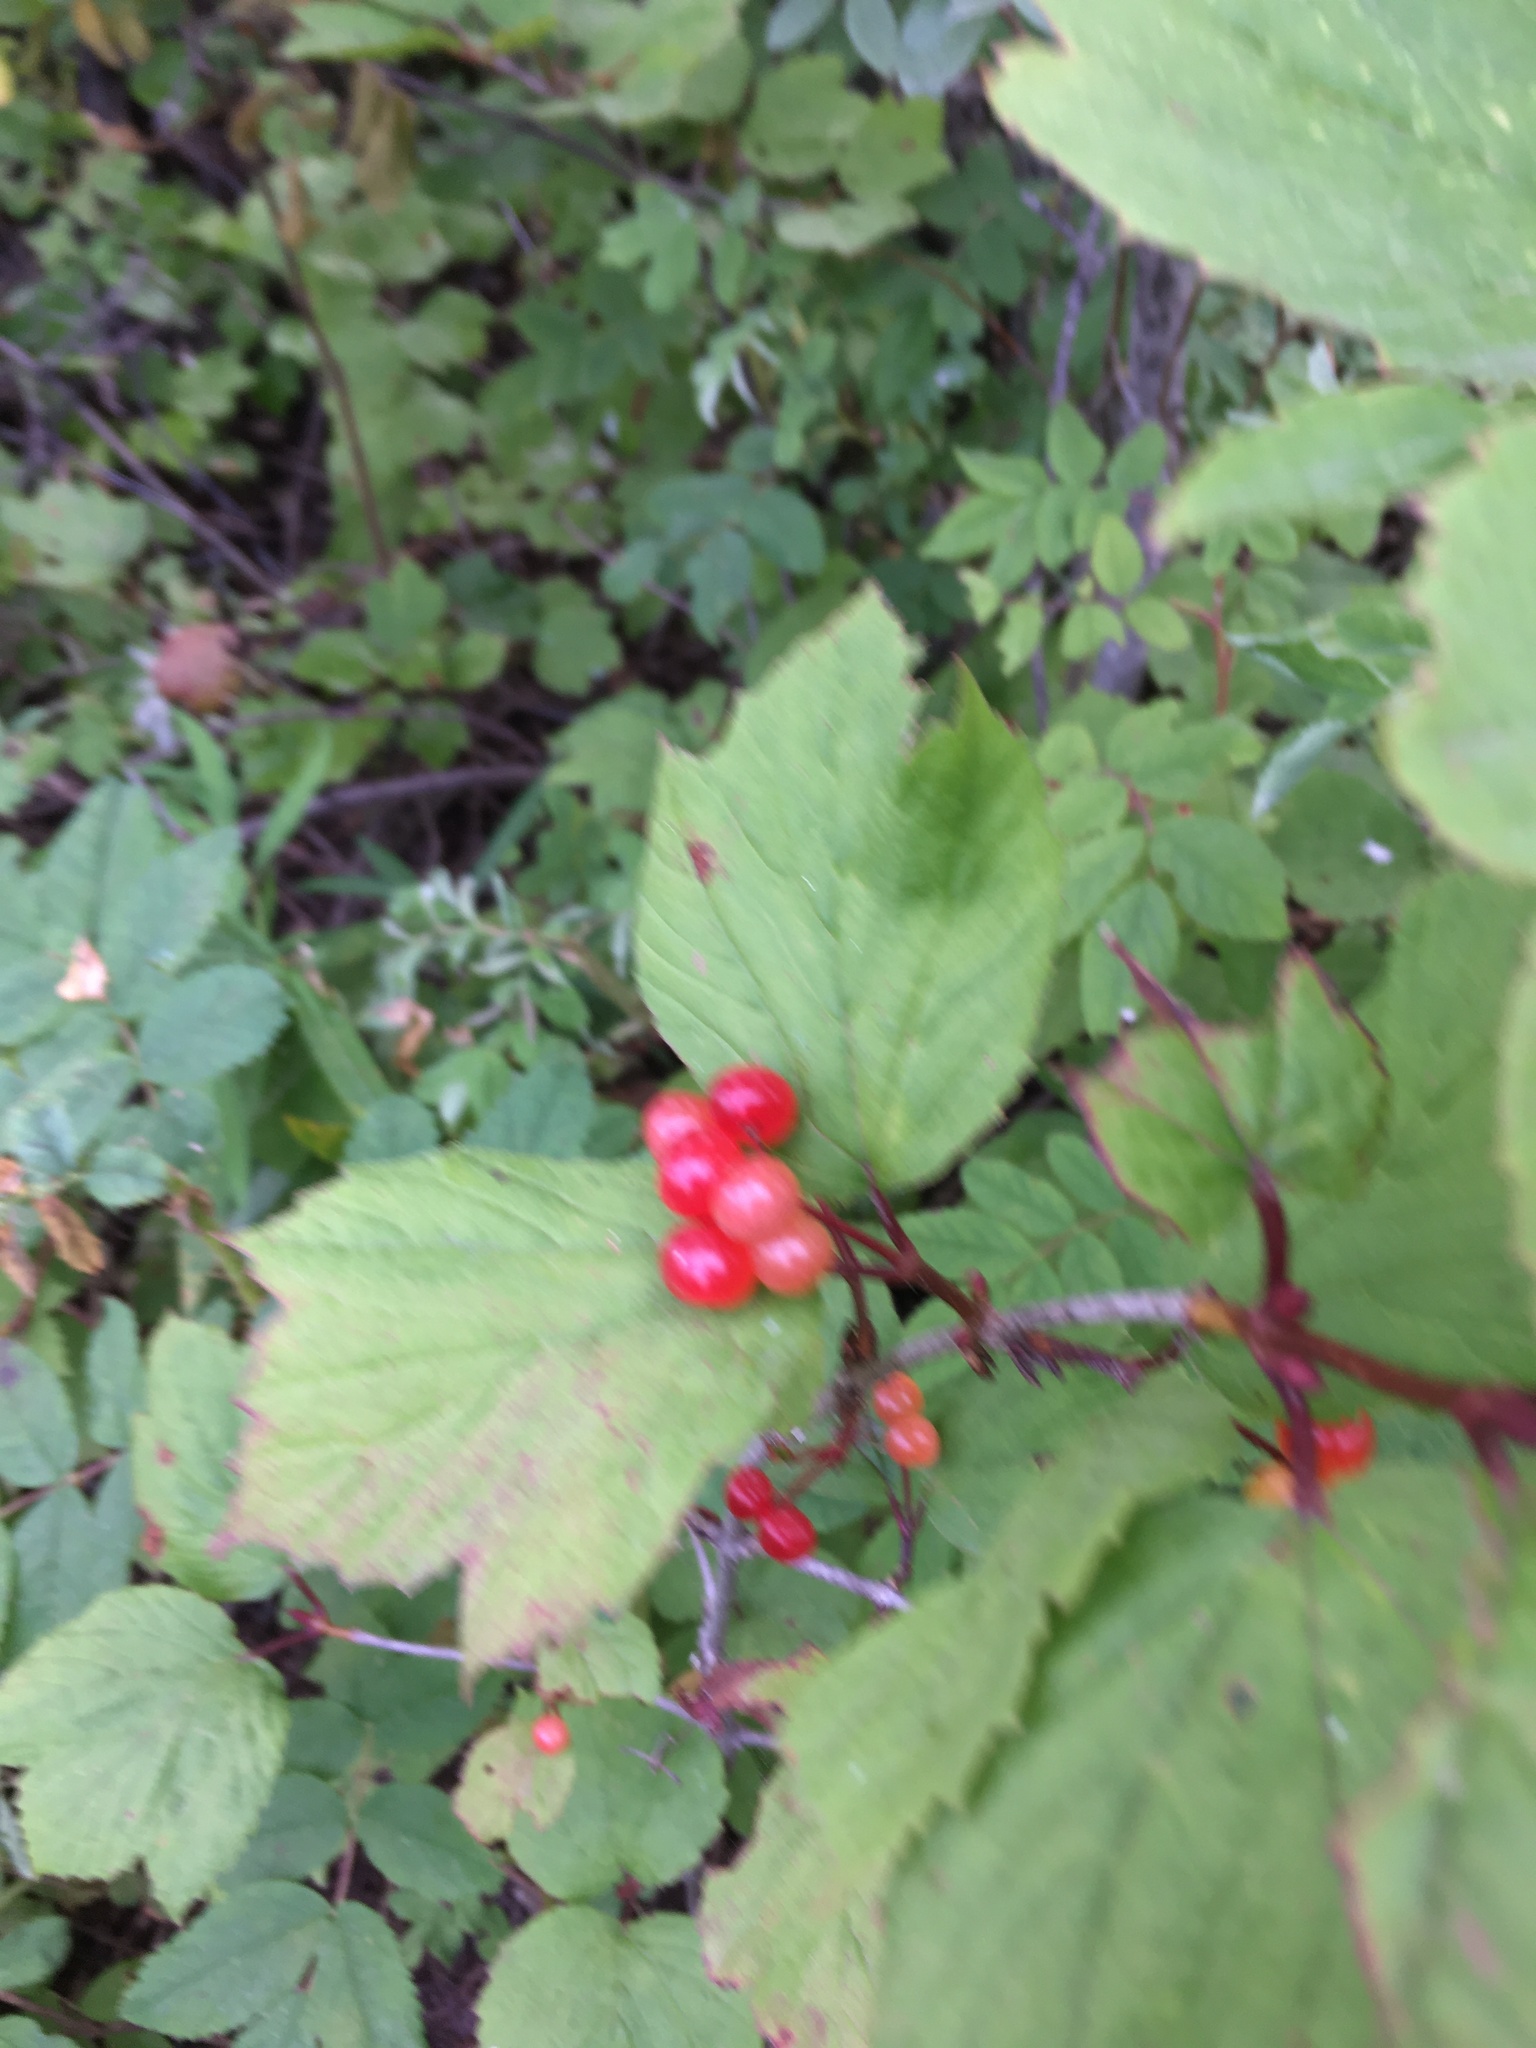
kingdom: Plantae
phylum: Tracheophyta
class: Magnoliopsida
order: Dipsacales
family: Viburnaceae
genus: Viburnum
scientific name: Viburnum edule
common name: Mooseberry
